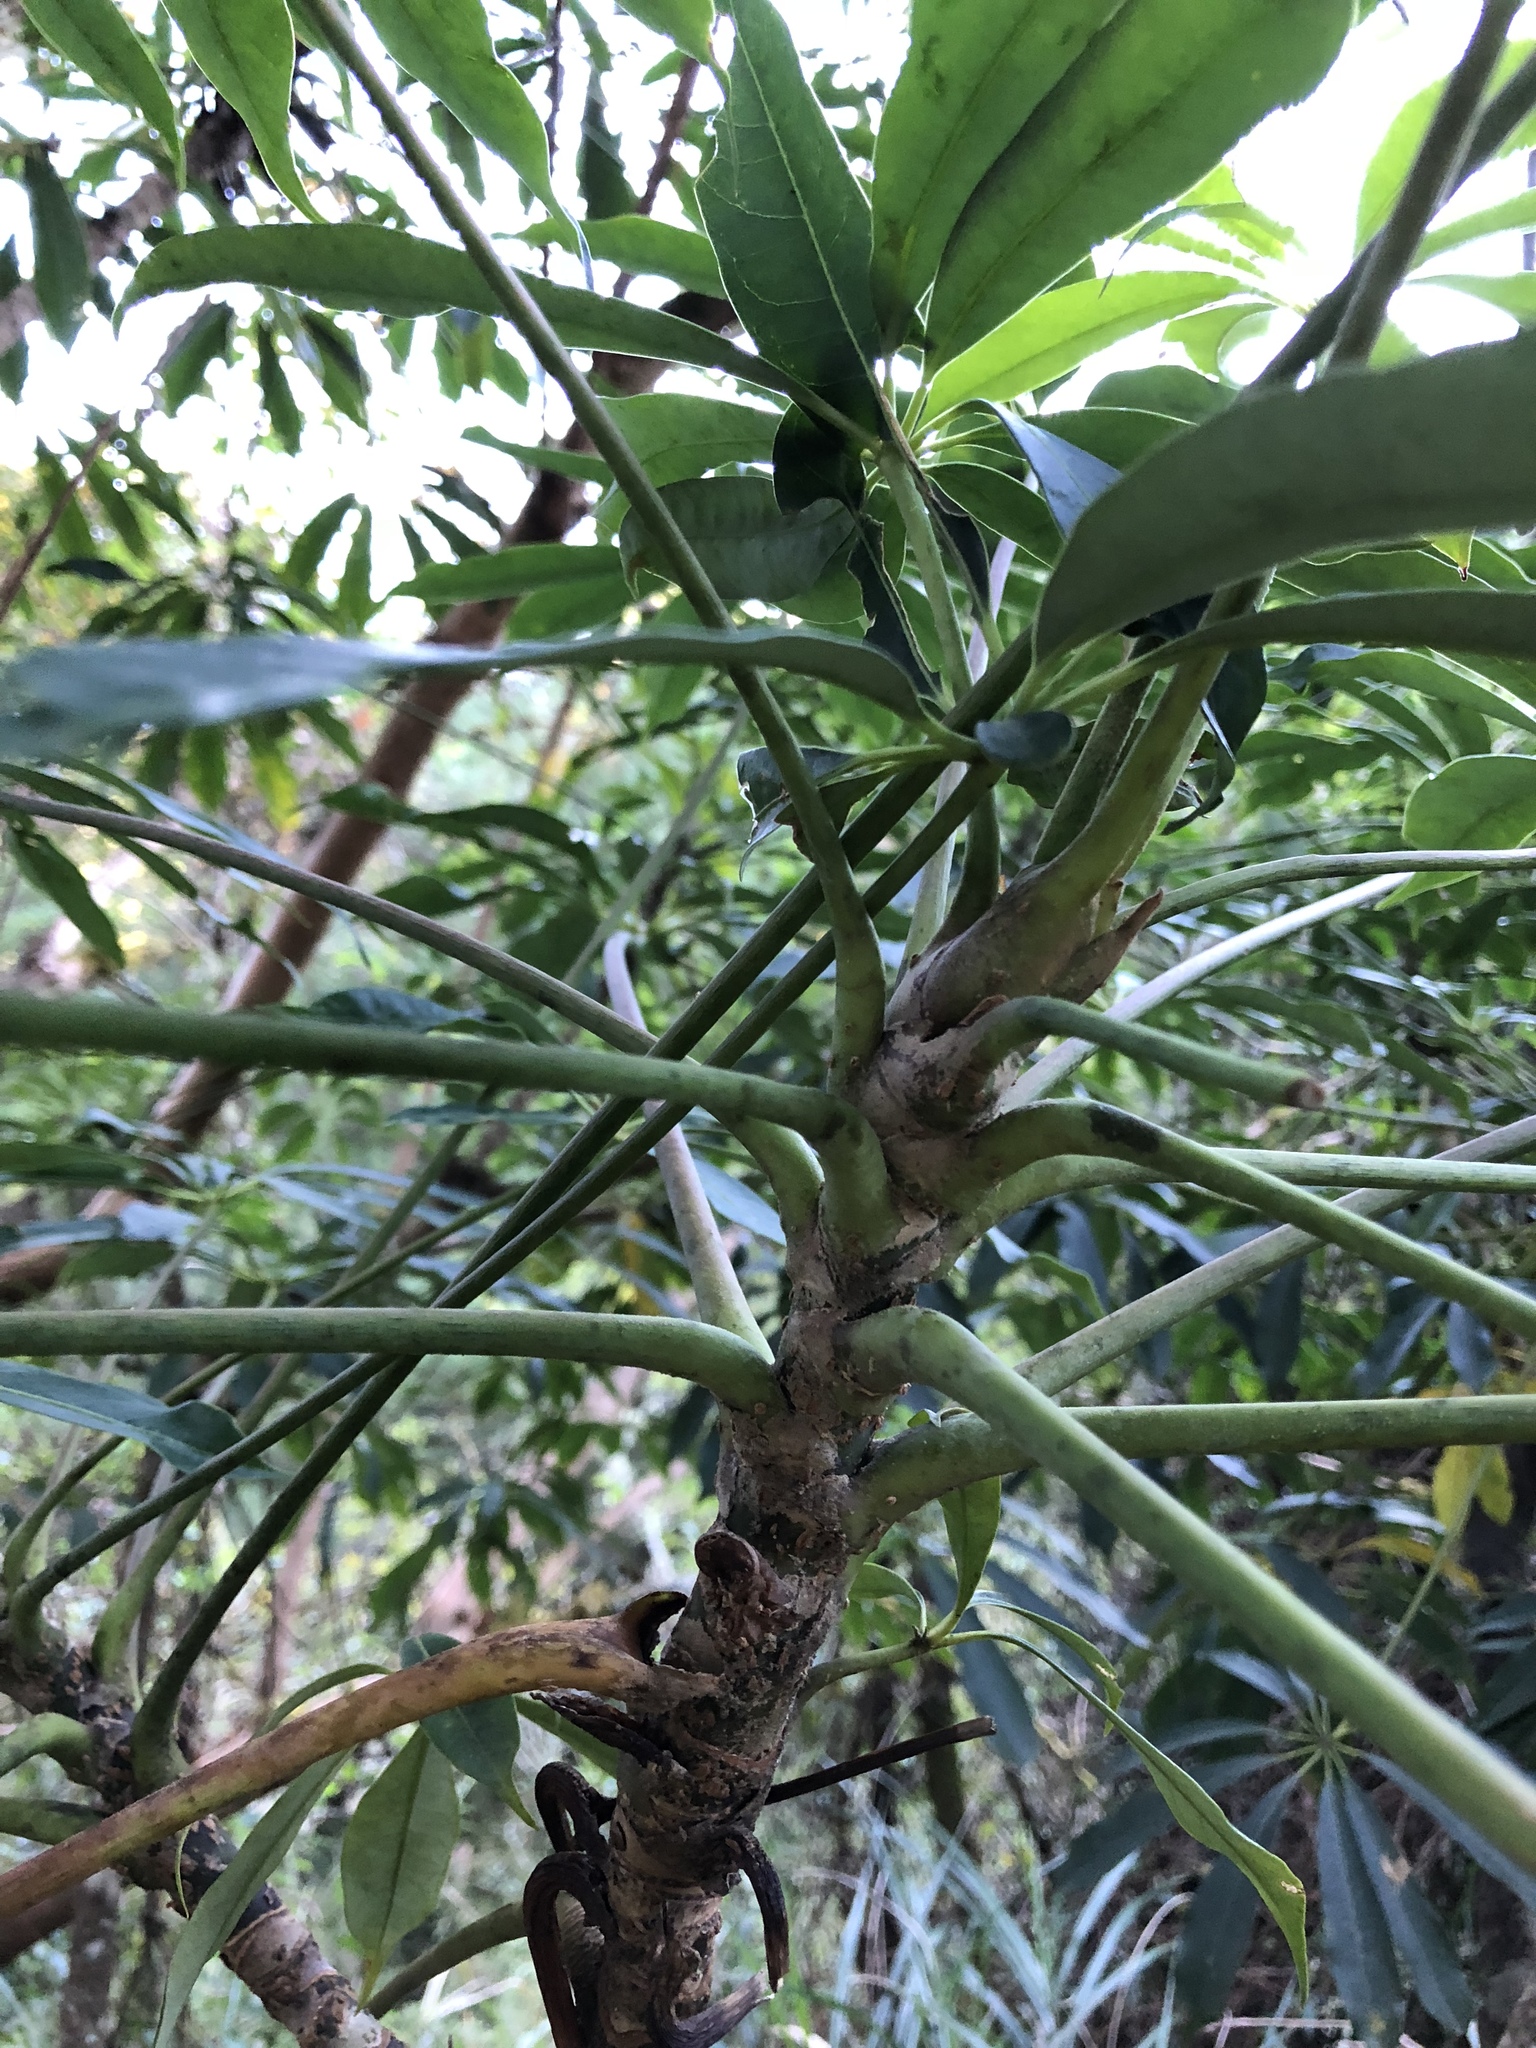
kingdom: Plantae
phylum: Tracheophyta
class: Magnoliopsida
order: Apiales
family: Araliaceae
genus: Heptapleurum
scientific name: Heptapleurum taiwanianum
